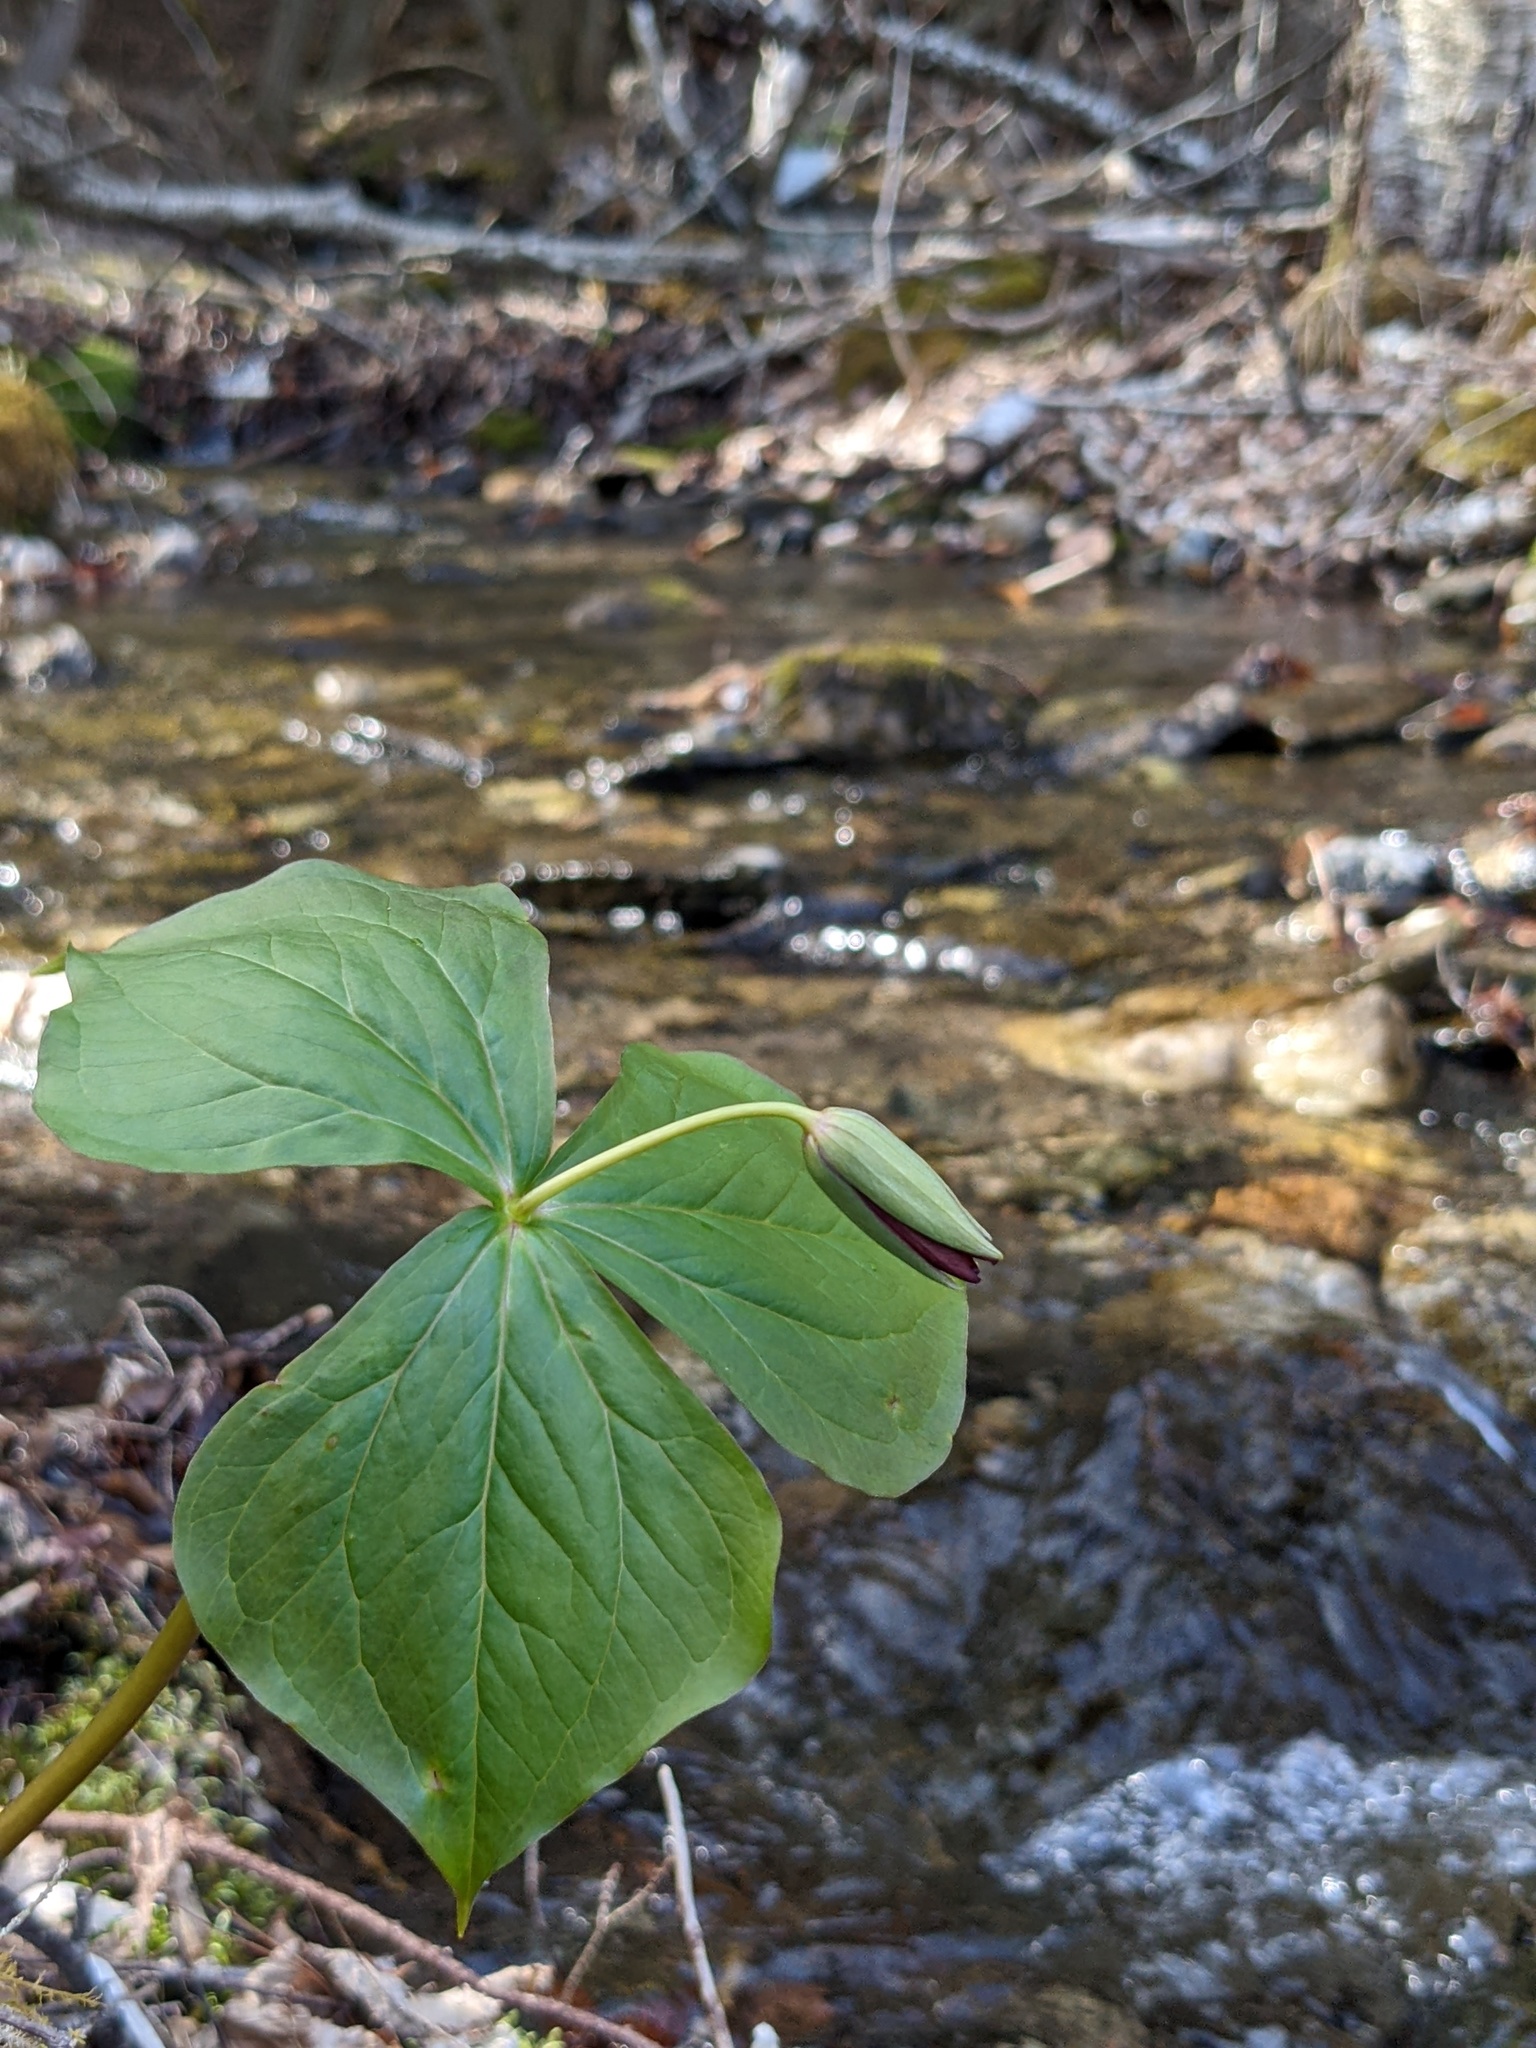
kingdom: Plantae
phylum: Tracheophyta
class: Liliopsida
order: Liliales
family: Melanthiaceae
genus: Trillium
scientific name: Trillium erectum
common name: Purple trillium
